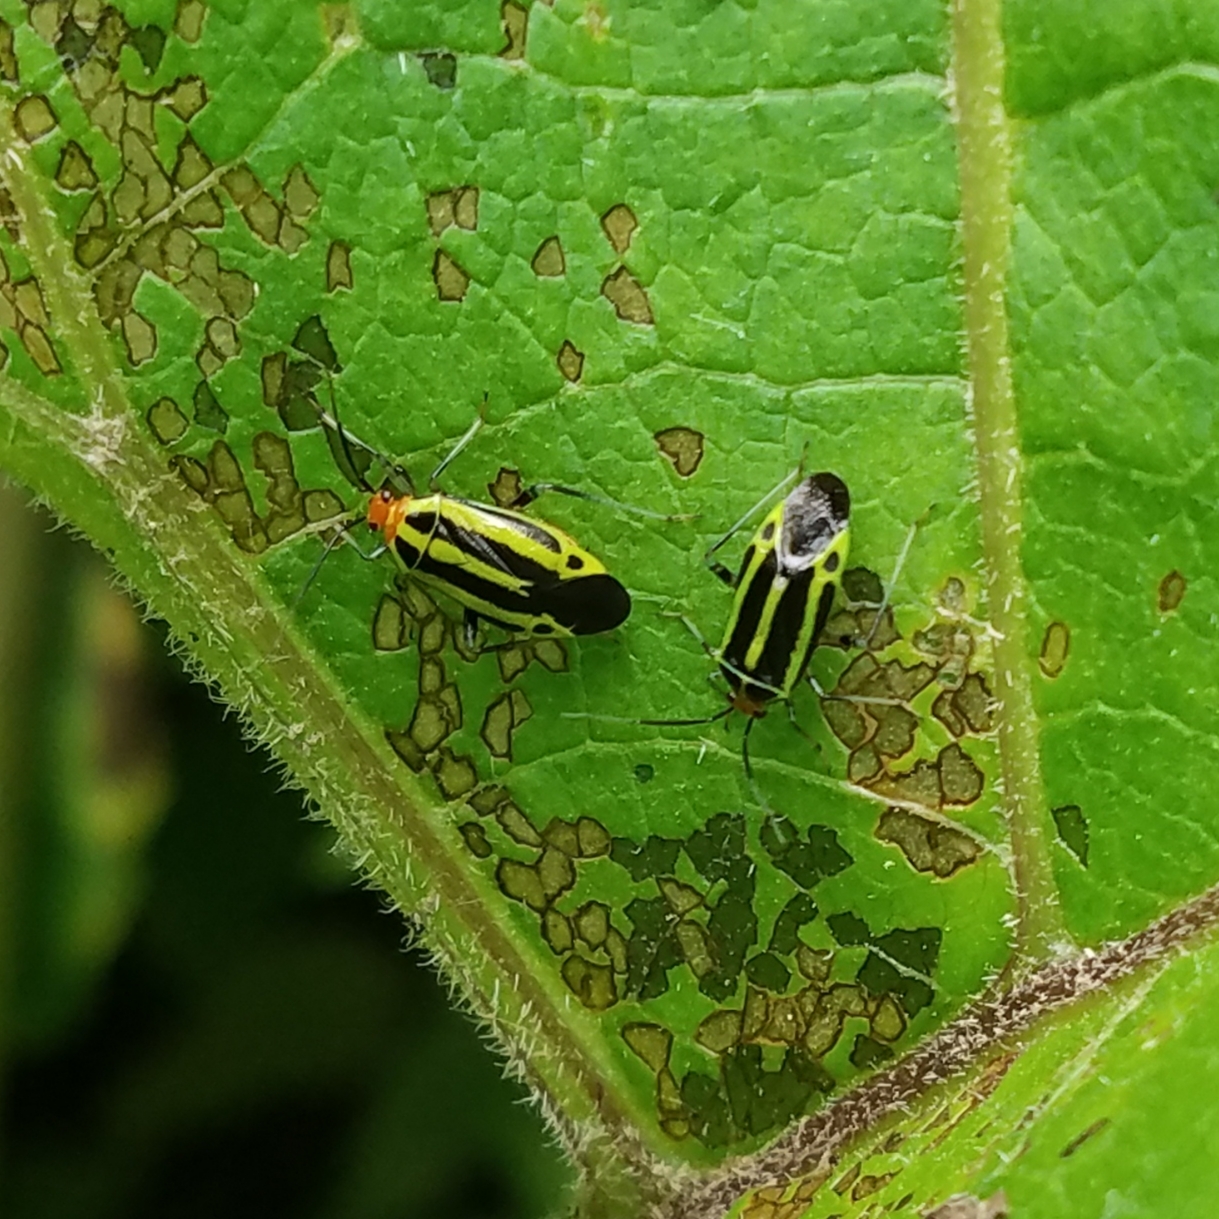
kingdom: Animalia
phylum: Arthropoda
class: Insecta
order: Hemiptera
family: Miridae
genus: Poecilocapsus
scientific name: Poecilocapsus lineatus
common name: Four-lined plant bug
